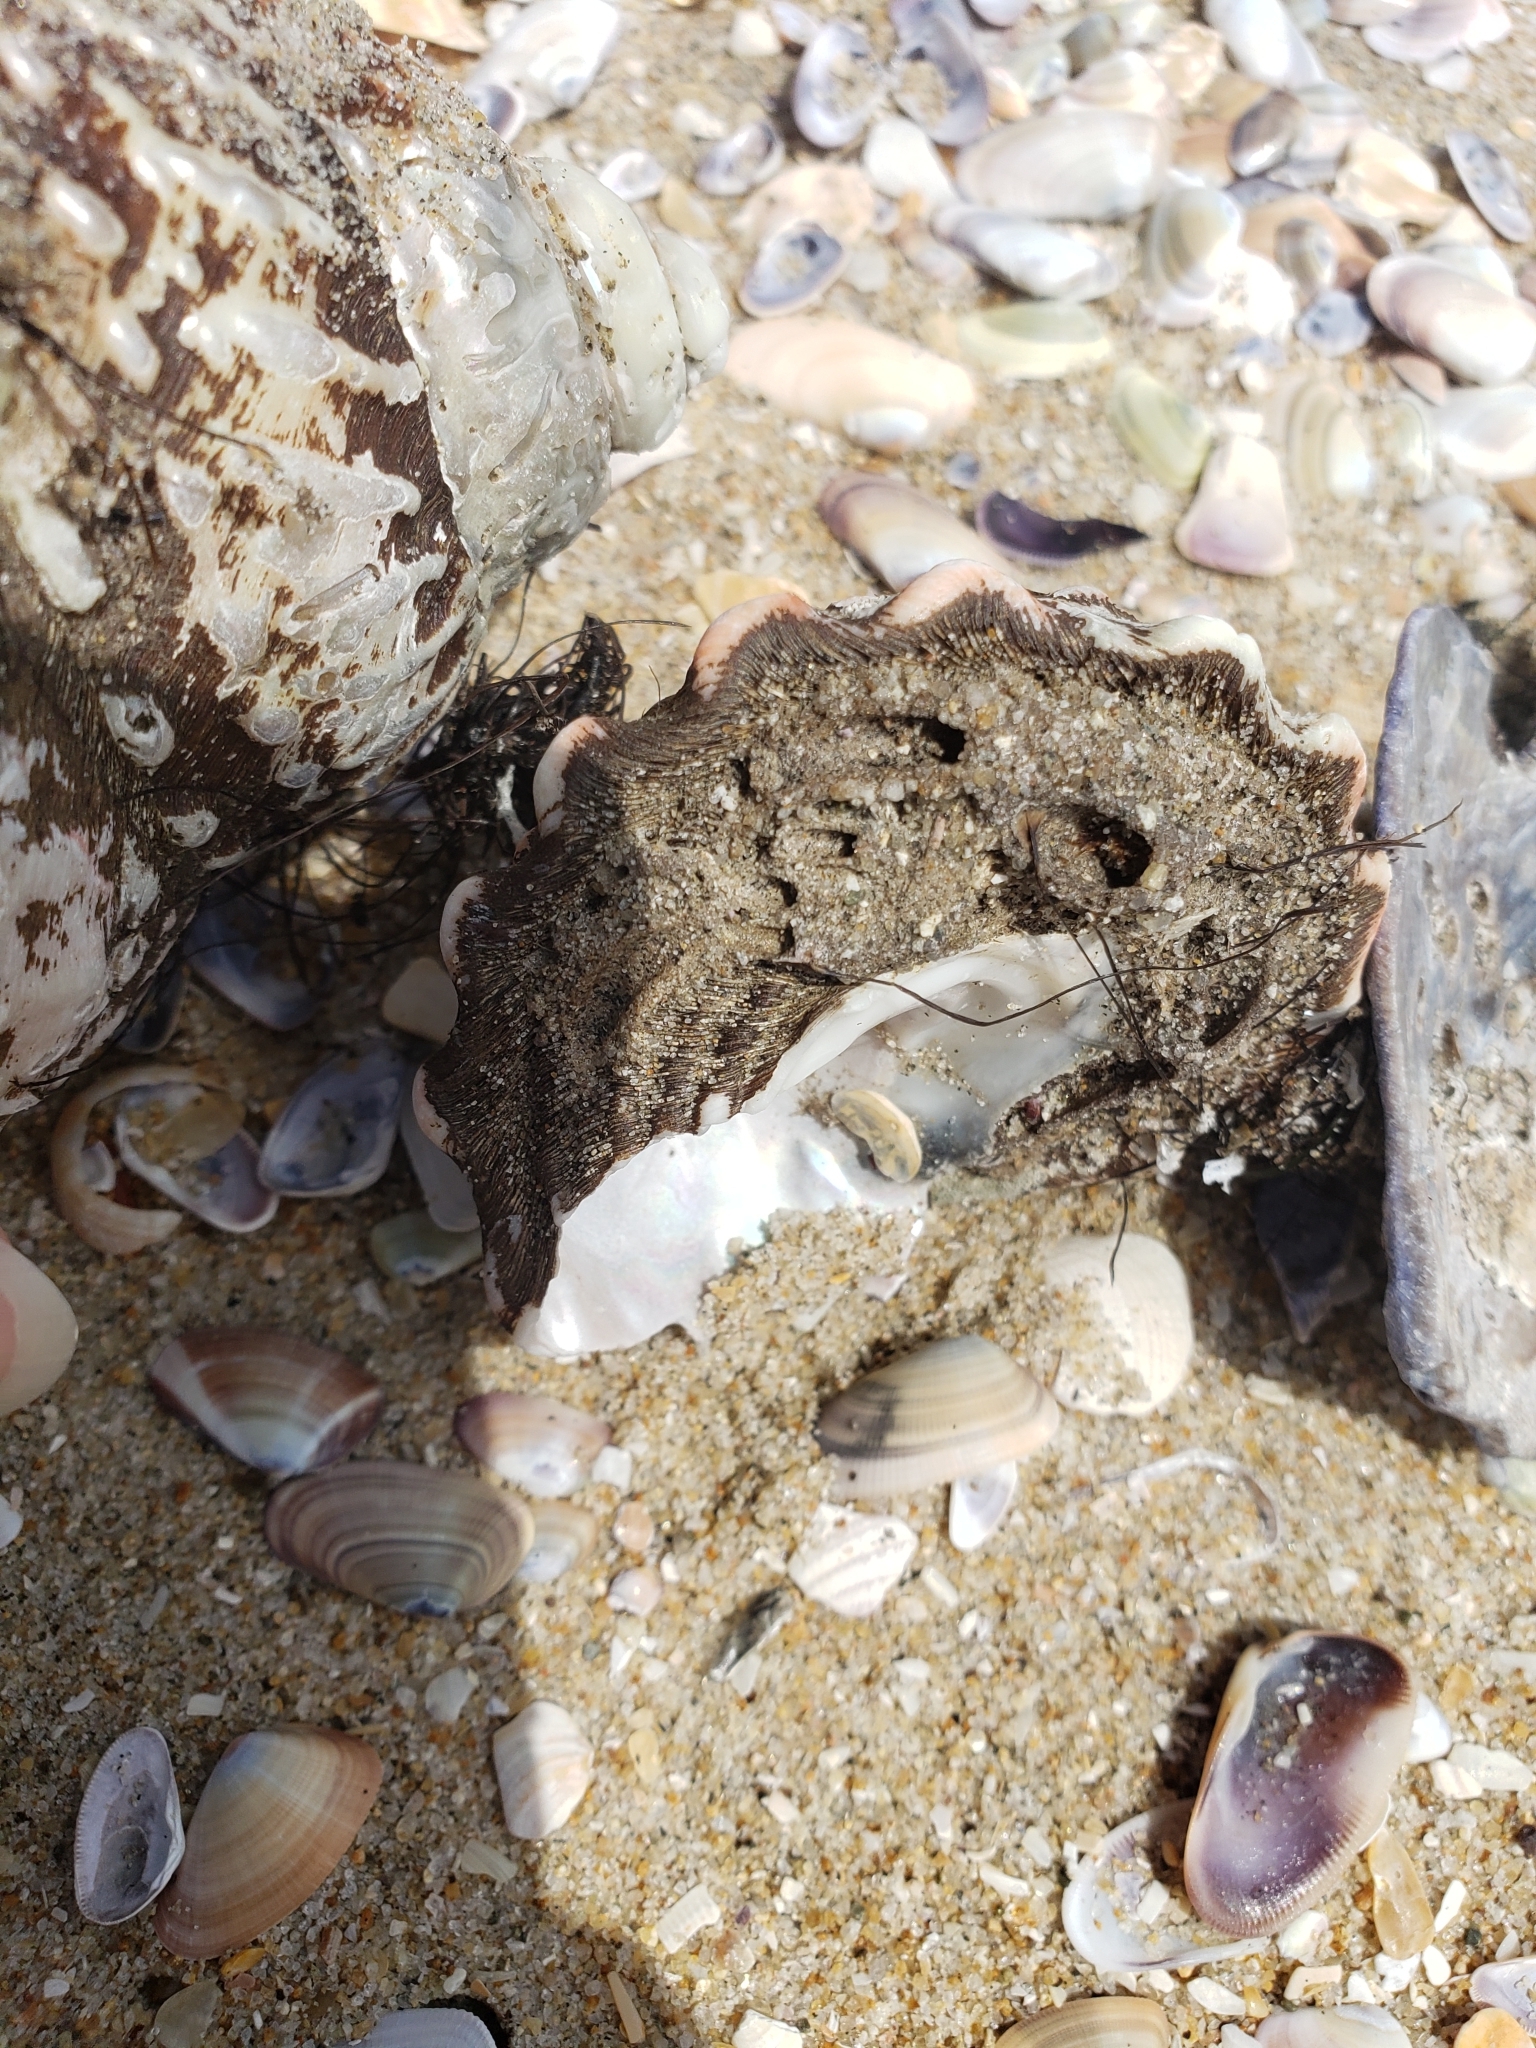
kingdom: Animalia
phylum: Mollusca
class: Gastropoda
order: Trochida
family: Turbinidae
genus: Megastraea
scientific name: Megastraea undosa
